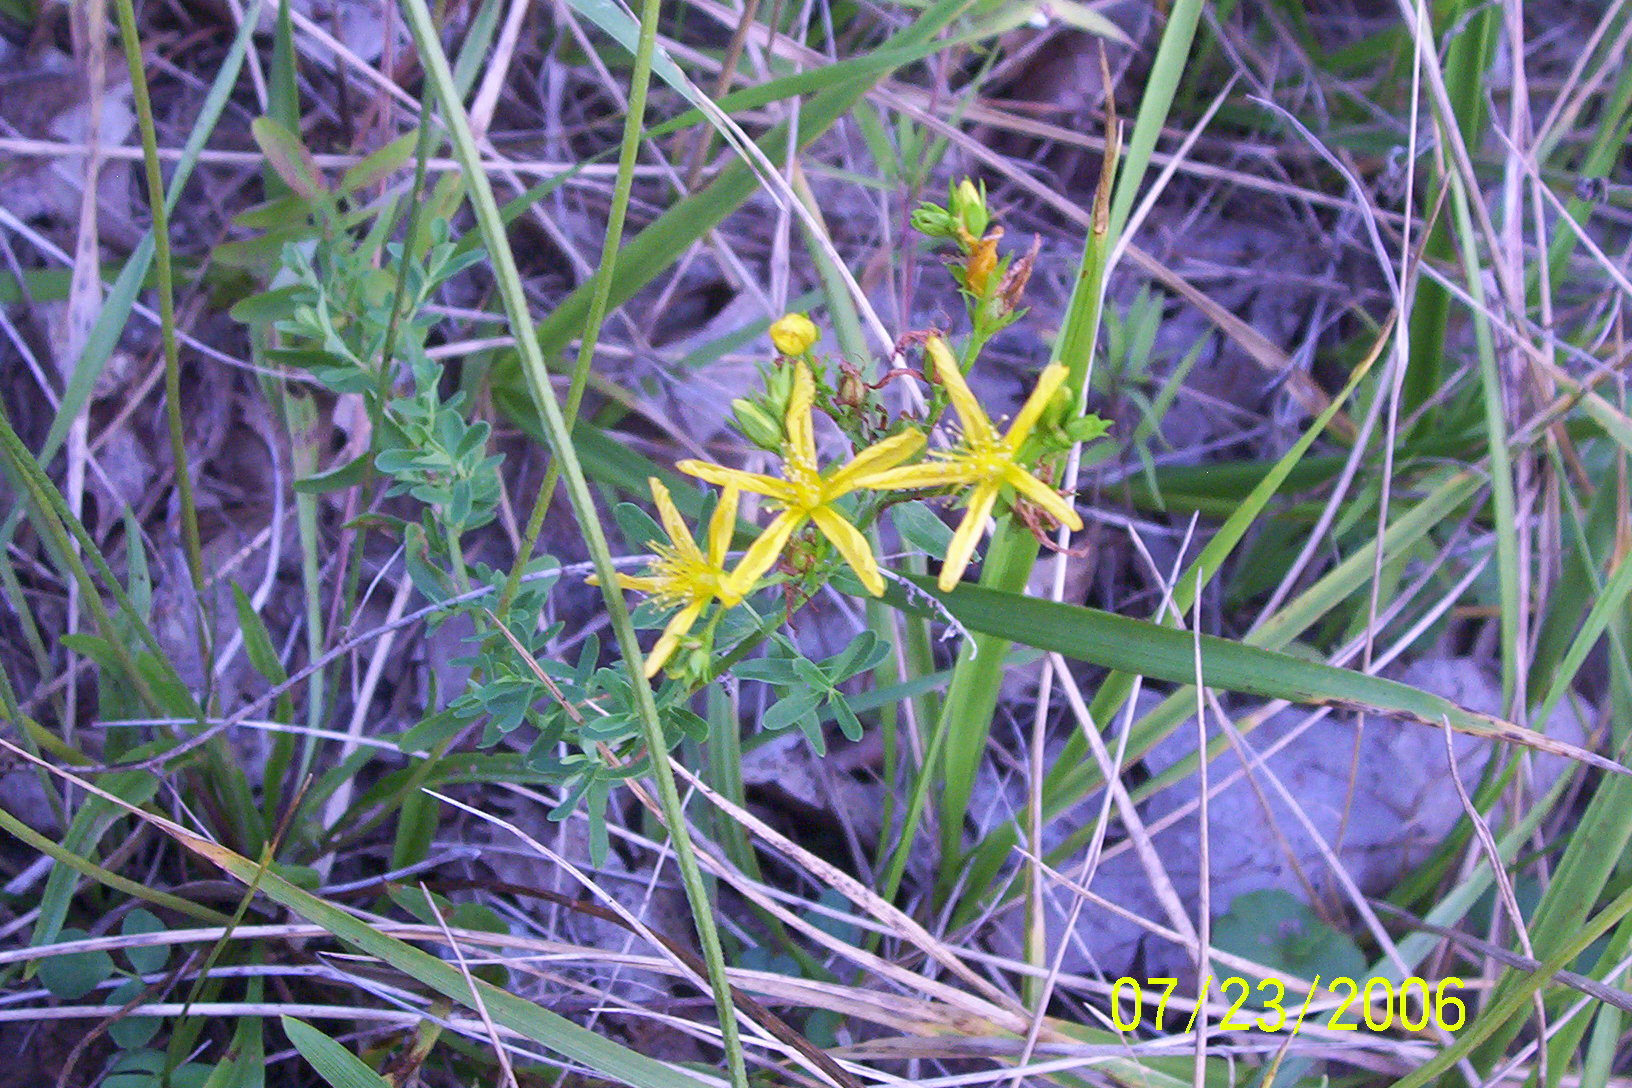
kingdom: Plantae
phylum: Tracheophyta
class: Magnoliopsida
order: Malpighiales
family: Hypericaceae
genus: Hypericum
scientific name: Hypericum perforatum
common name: Common st. johnswort
